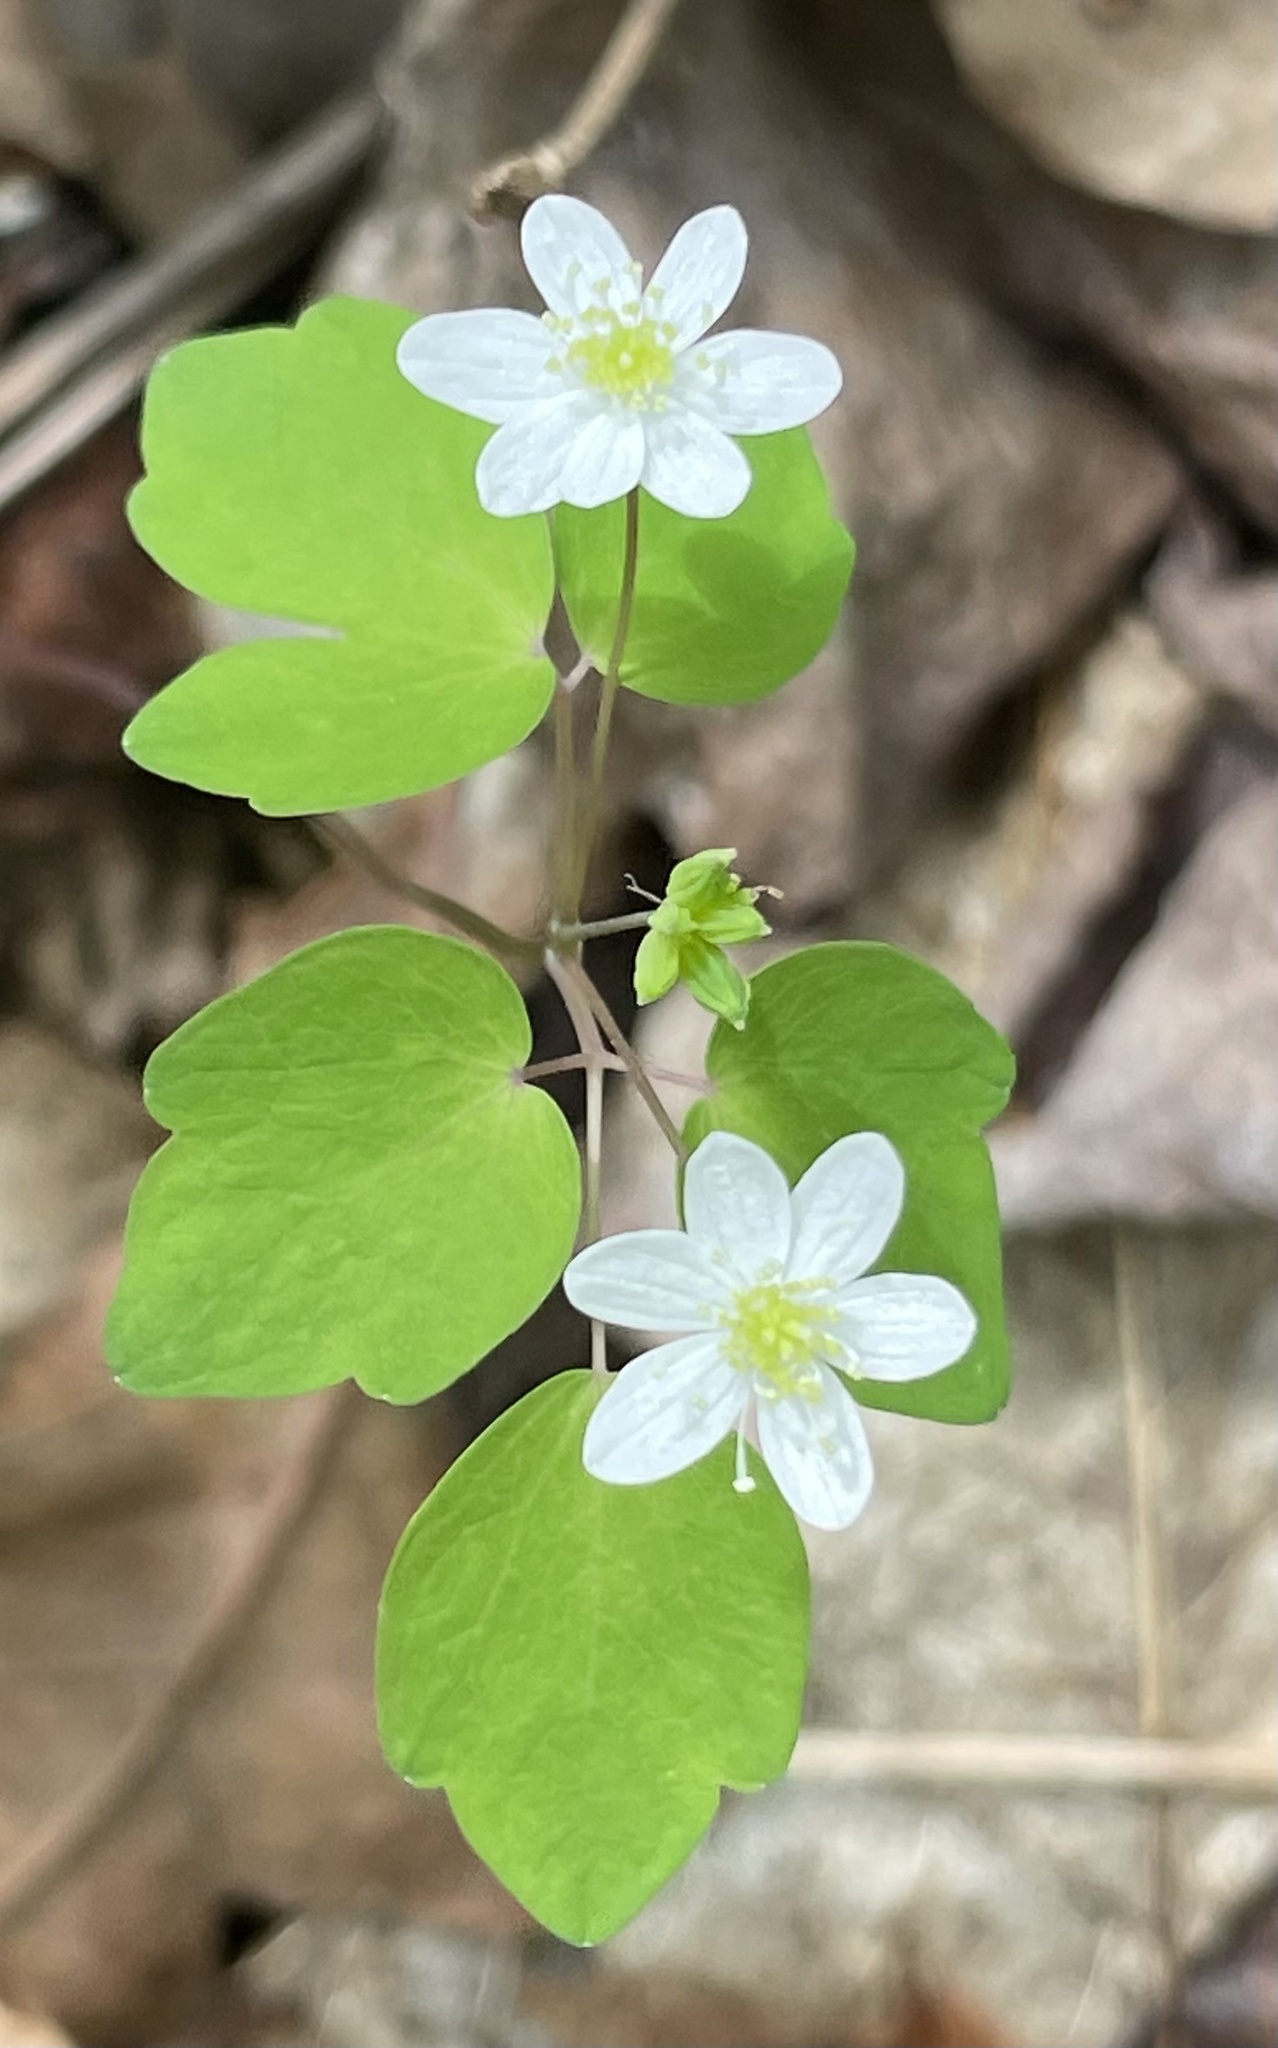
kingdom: Plantae
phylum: Tracheophyta
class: Magnoliopsida
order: Ranunculales
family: Ranunculaceae
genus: Thalictrum
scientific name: Thalictrum thalictroides
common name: Rue-anemone
